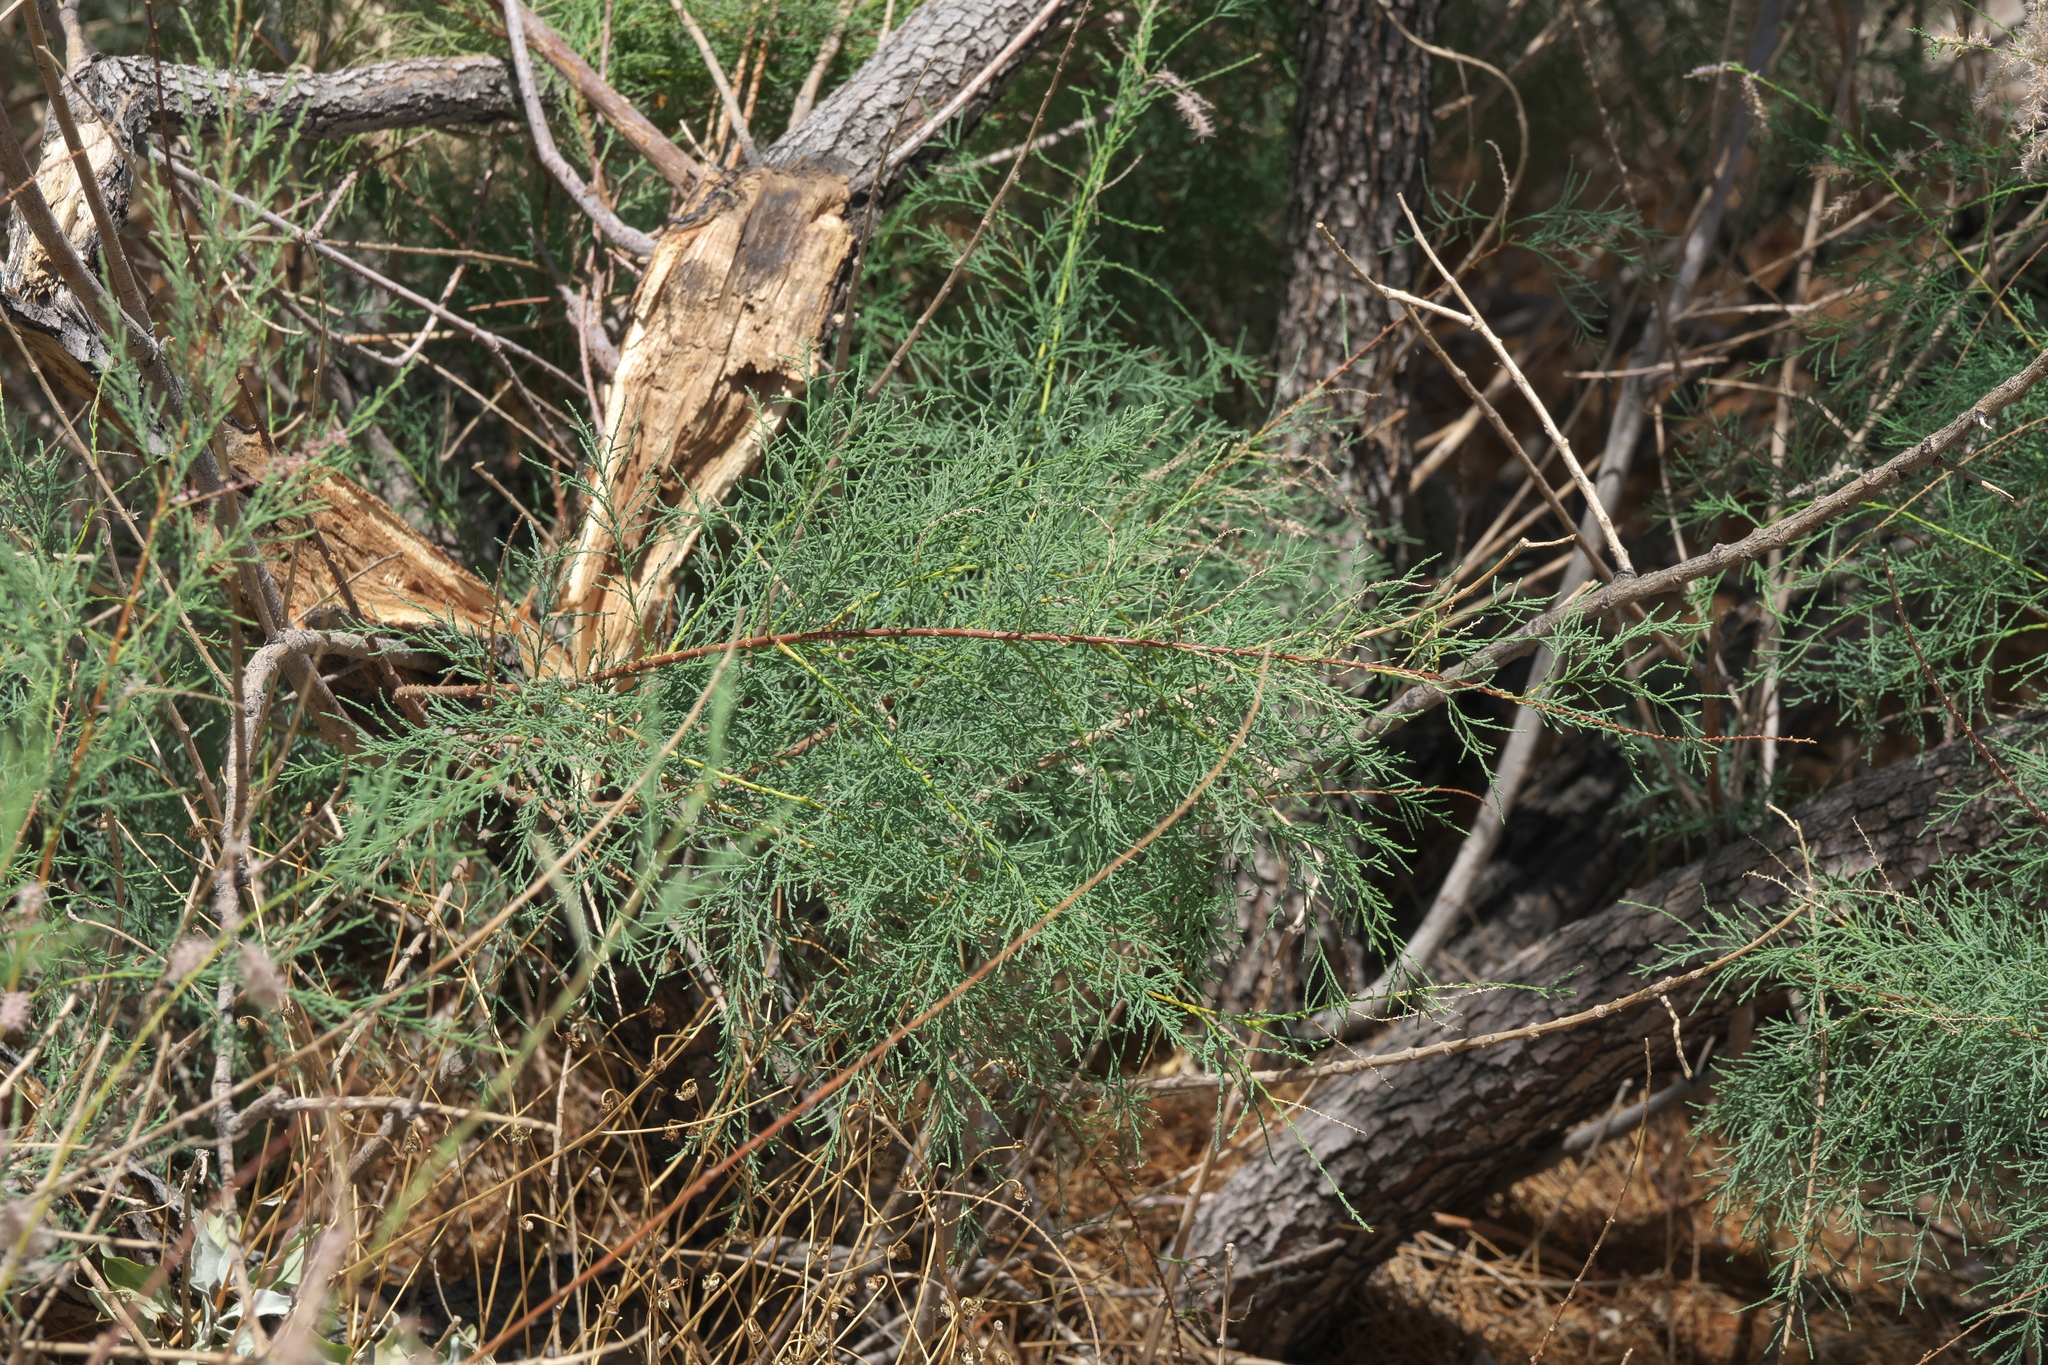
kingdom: Plantae
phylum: Tracheophyta
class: Magnoliopsida
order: Caryophyllales
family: Tamaricaceae
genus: Tamarix
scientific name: Tamarix
